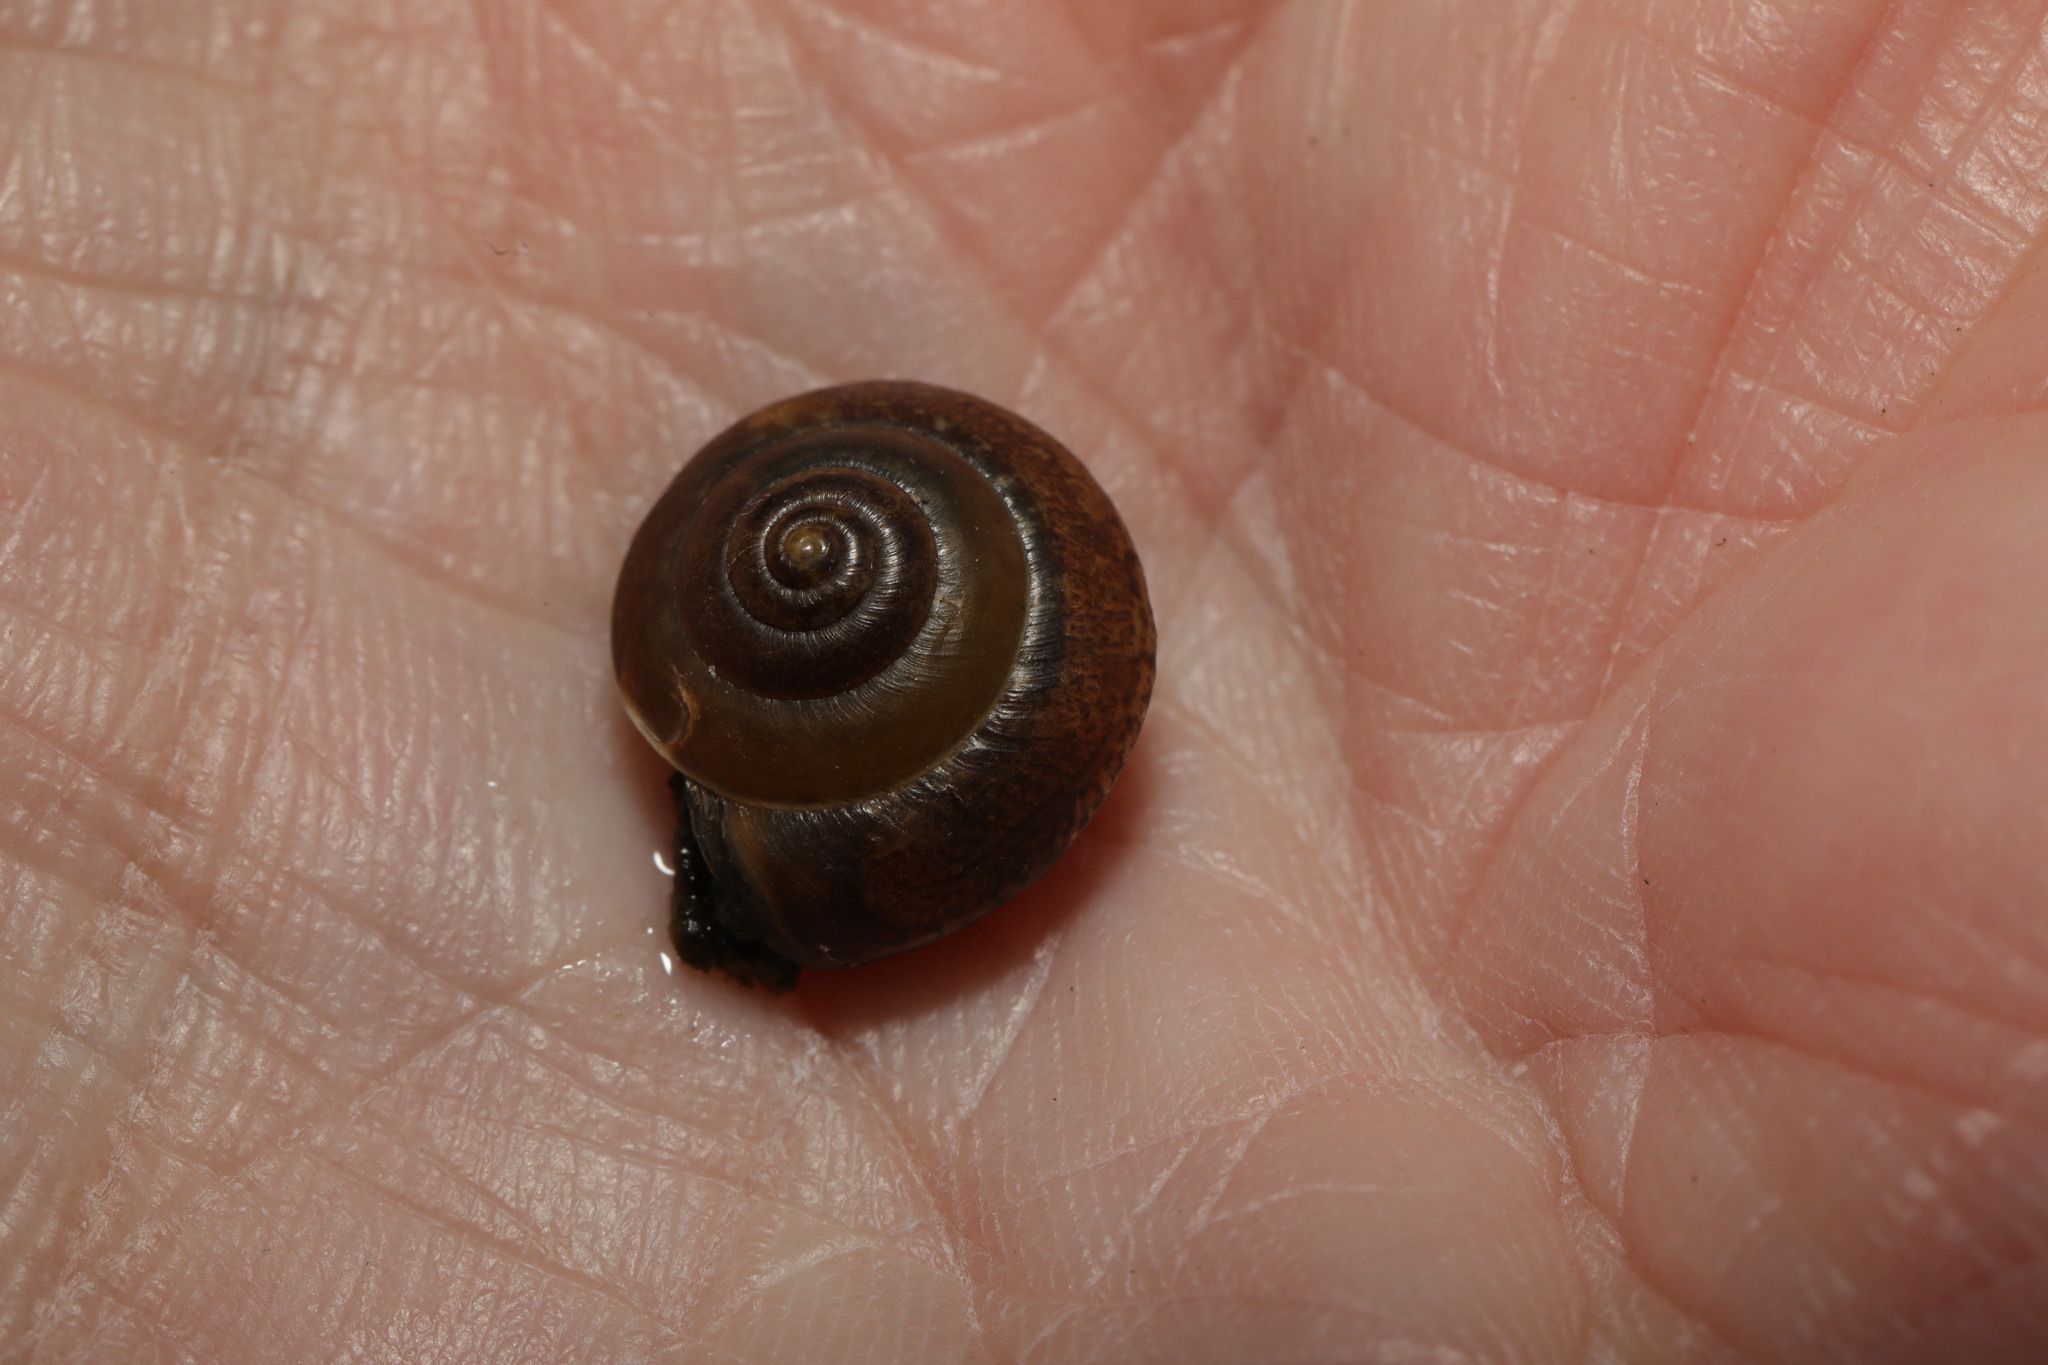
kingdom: Animalia
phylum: Mollusca
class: Gastropoda
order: Stylommatophora
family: Hygromiidae
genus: Hygromia
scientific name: Hygromia cinctella
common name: Girdled snail
